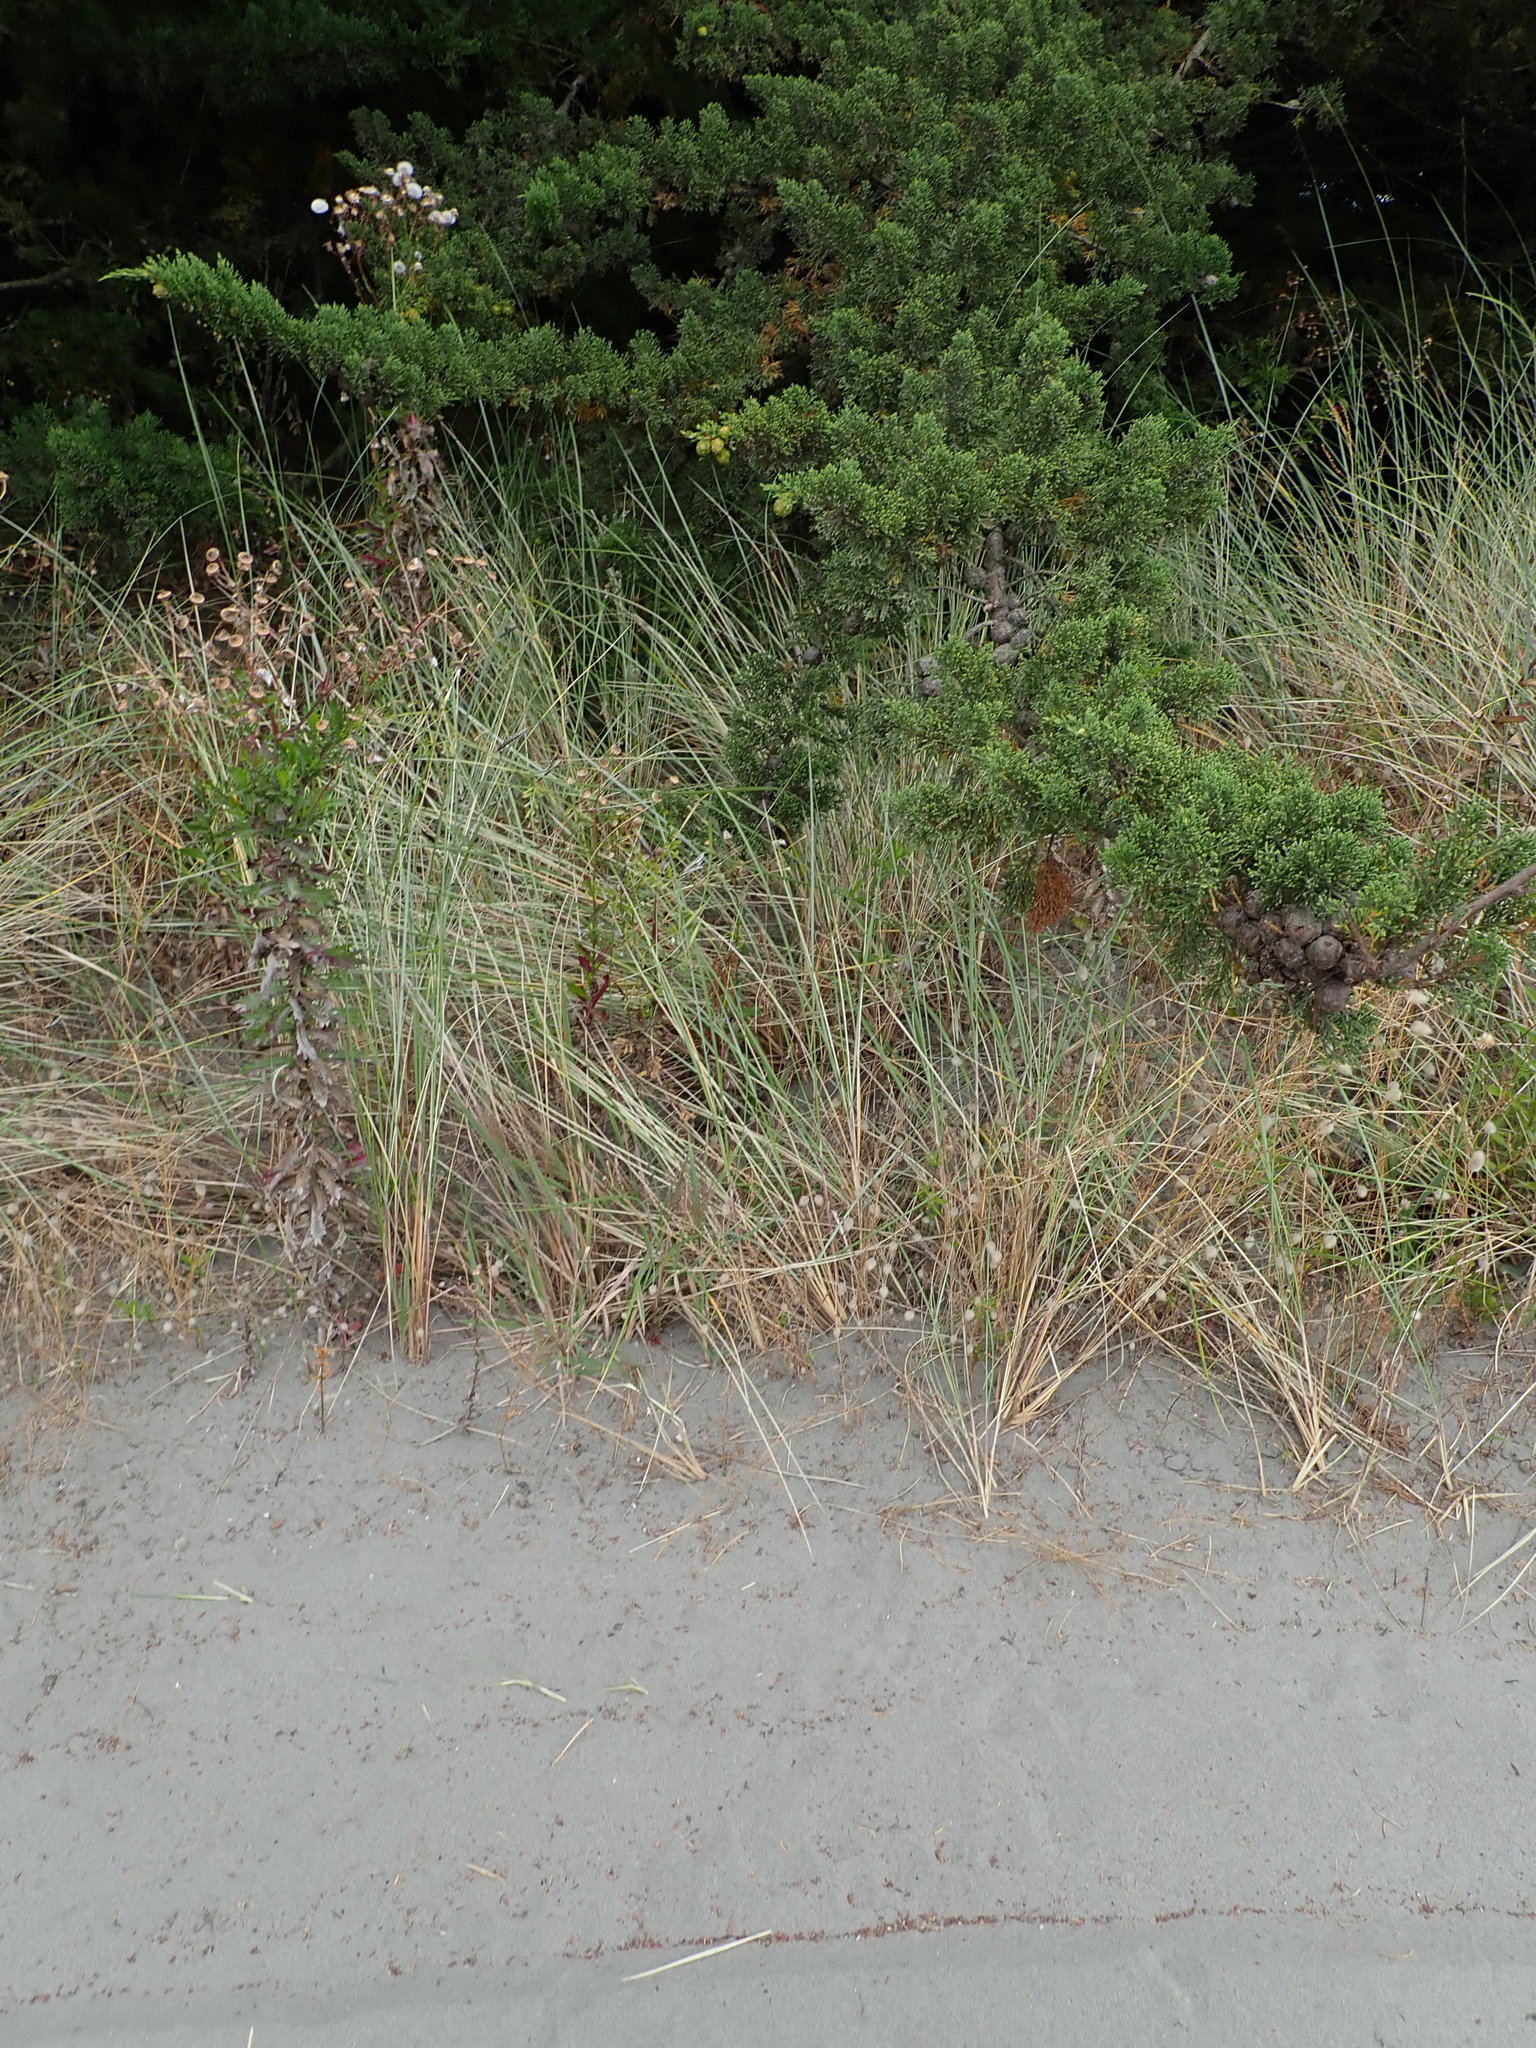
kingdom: Plantae
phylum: Tracheophyta
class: Pinopsida
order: Pinales
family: Cupressaceae
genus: Cupressus
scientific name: Cupressus macrocarpa
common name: Monterey cypress
